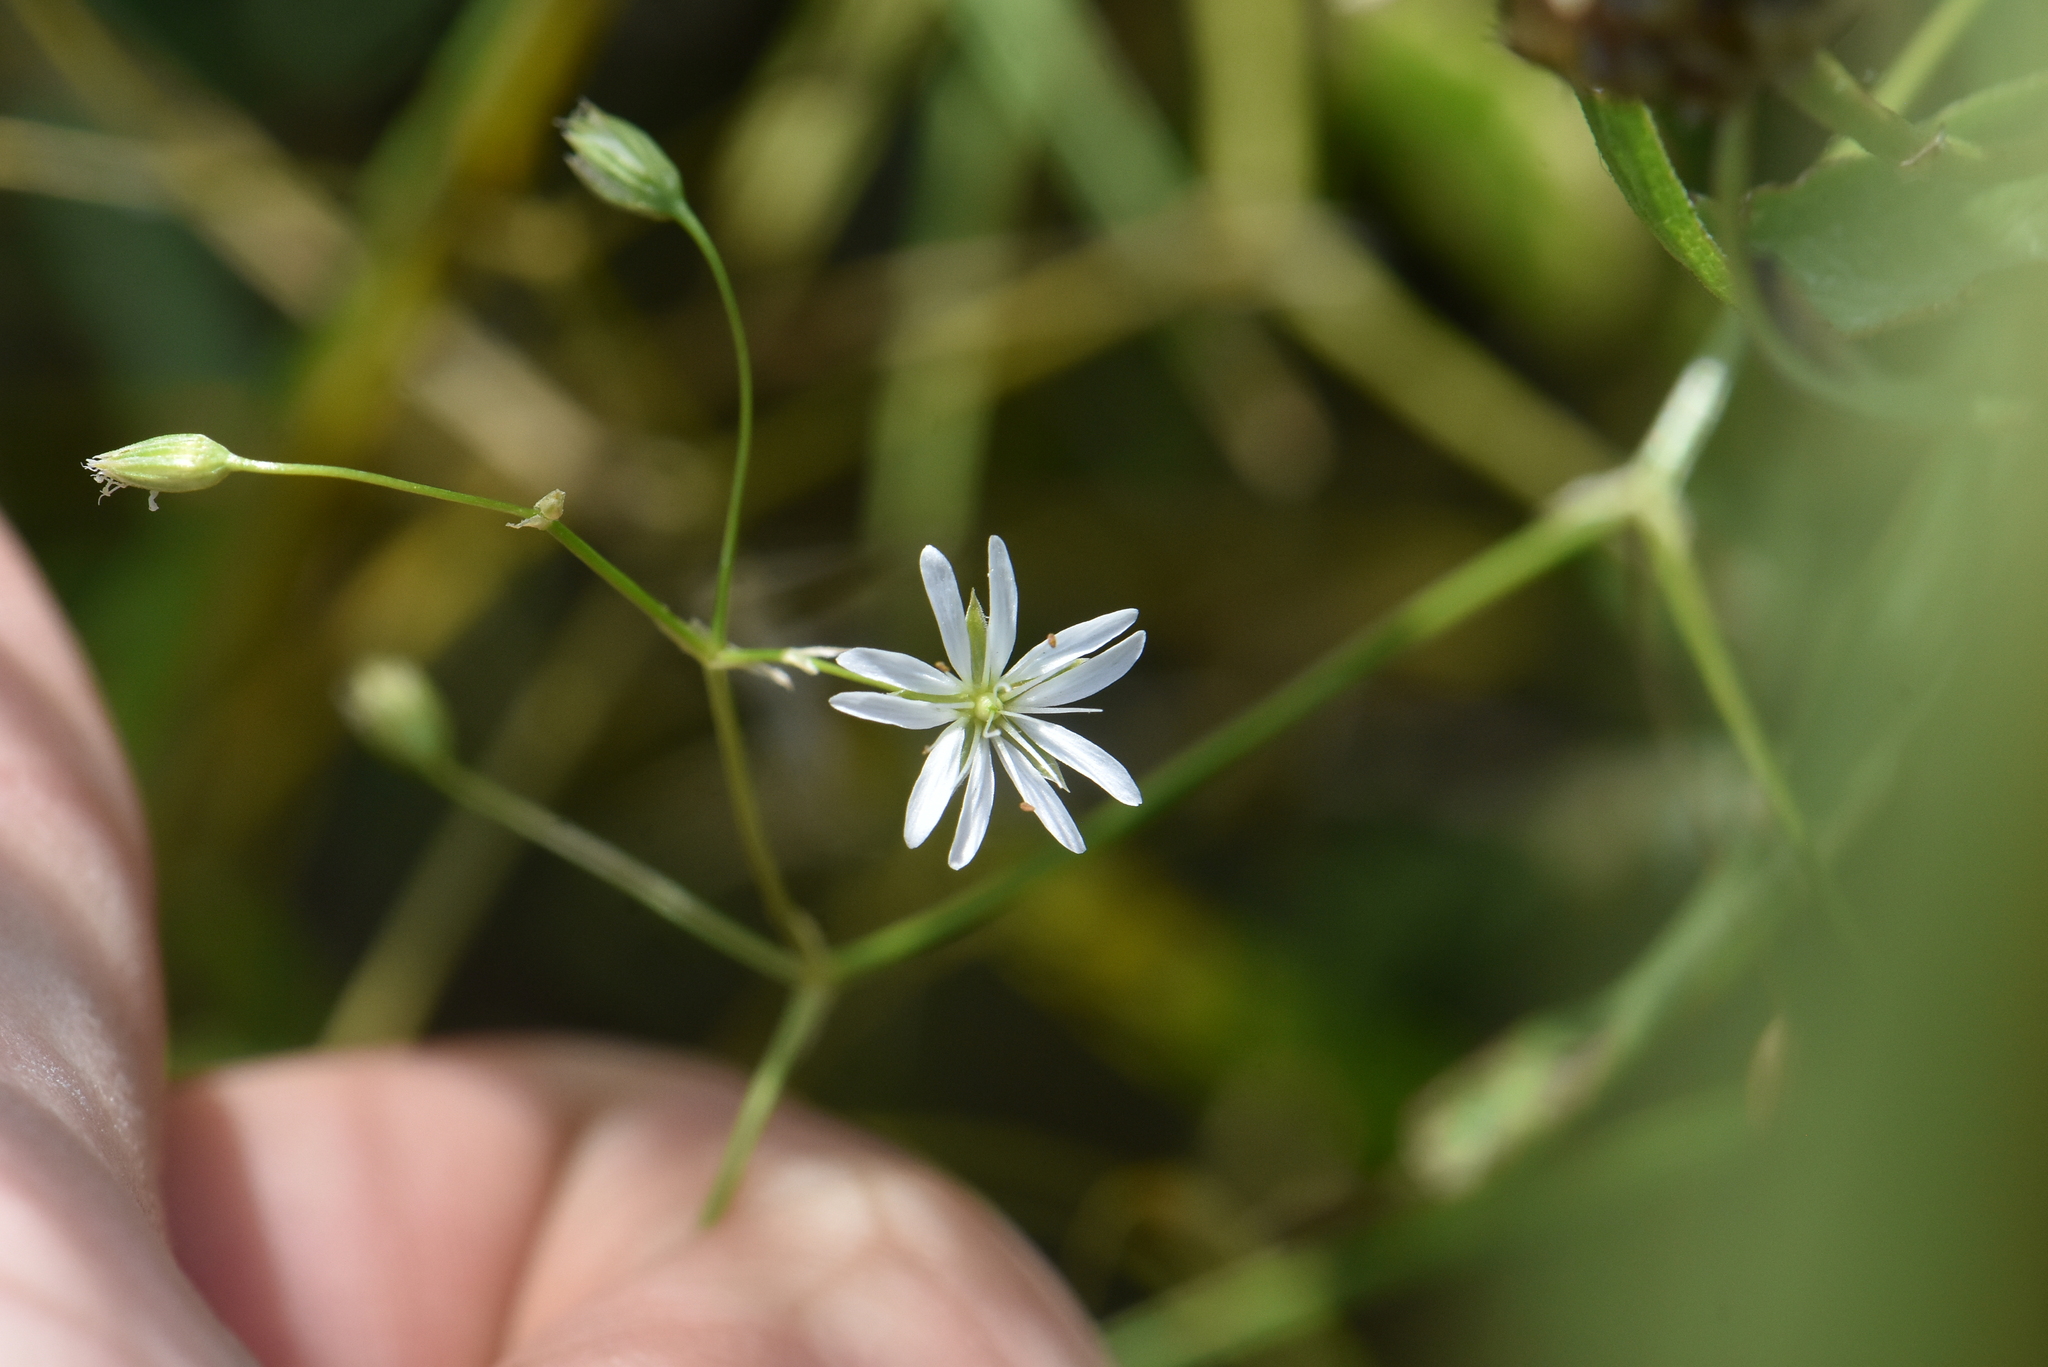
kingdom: Plantae
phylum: Tracheophyta
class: Magnoliopsida
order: Caryophyllales
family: Caryophyllaceae
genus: Stellaria
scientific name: Stellaria graminea
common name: Grass-like starwort
